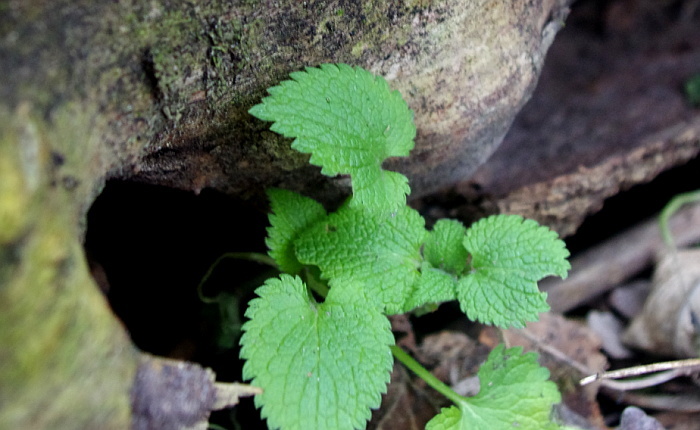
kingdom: Plantae
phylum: Tracheophyta
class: Magnoliopsida
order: Lamiales
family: Lamiaceae
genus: Lamium
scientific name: Lamium album
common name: White dead-nettle
